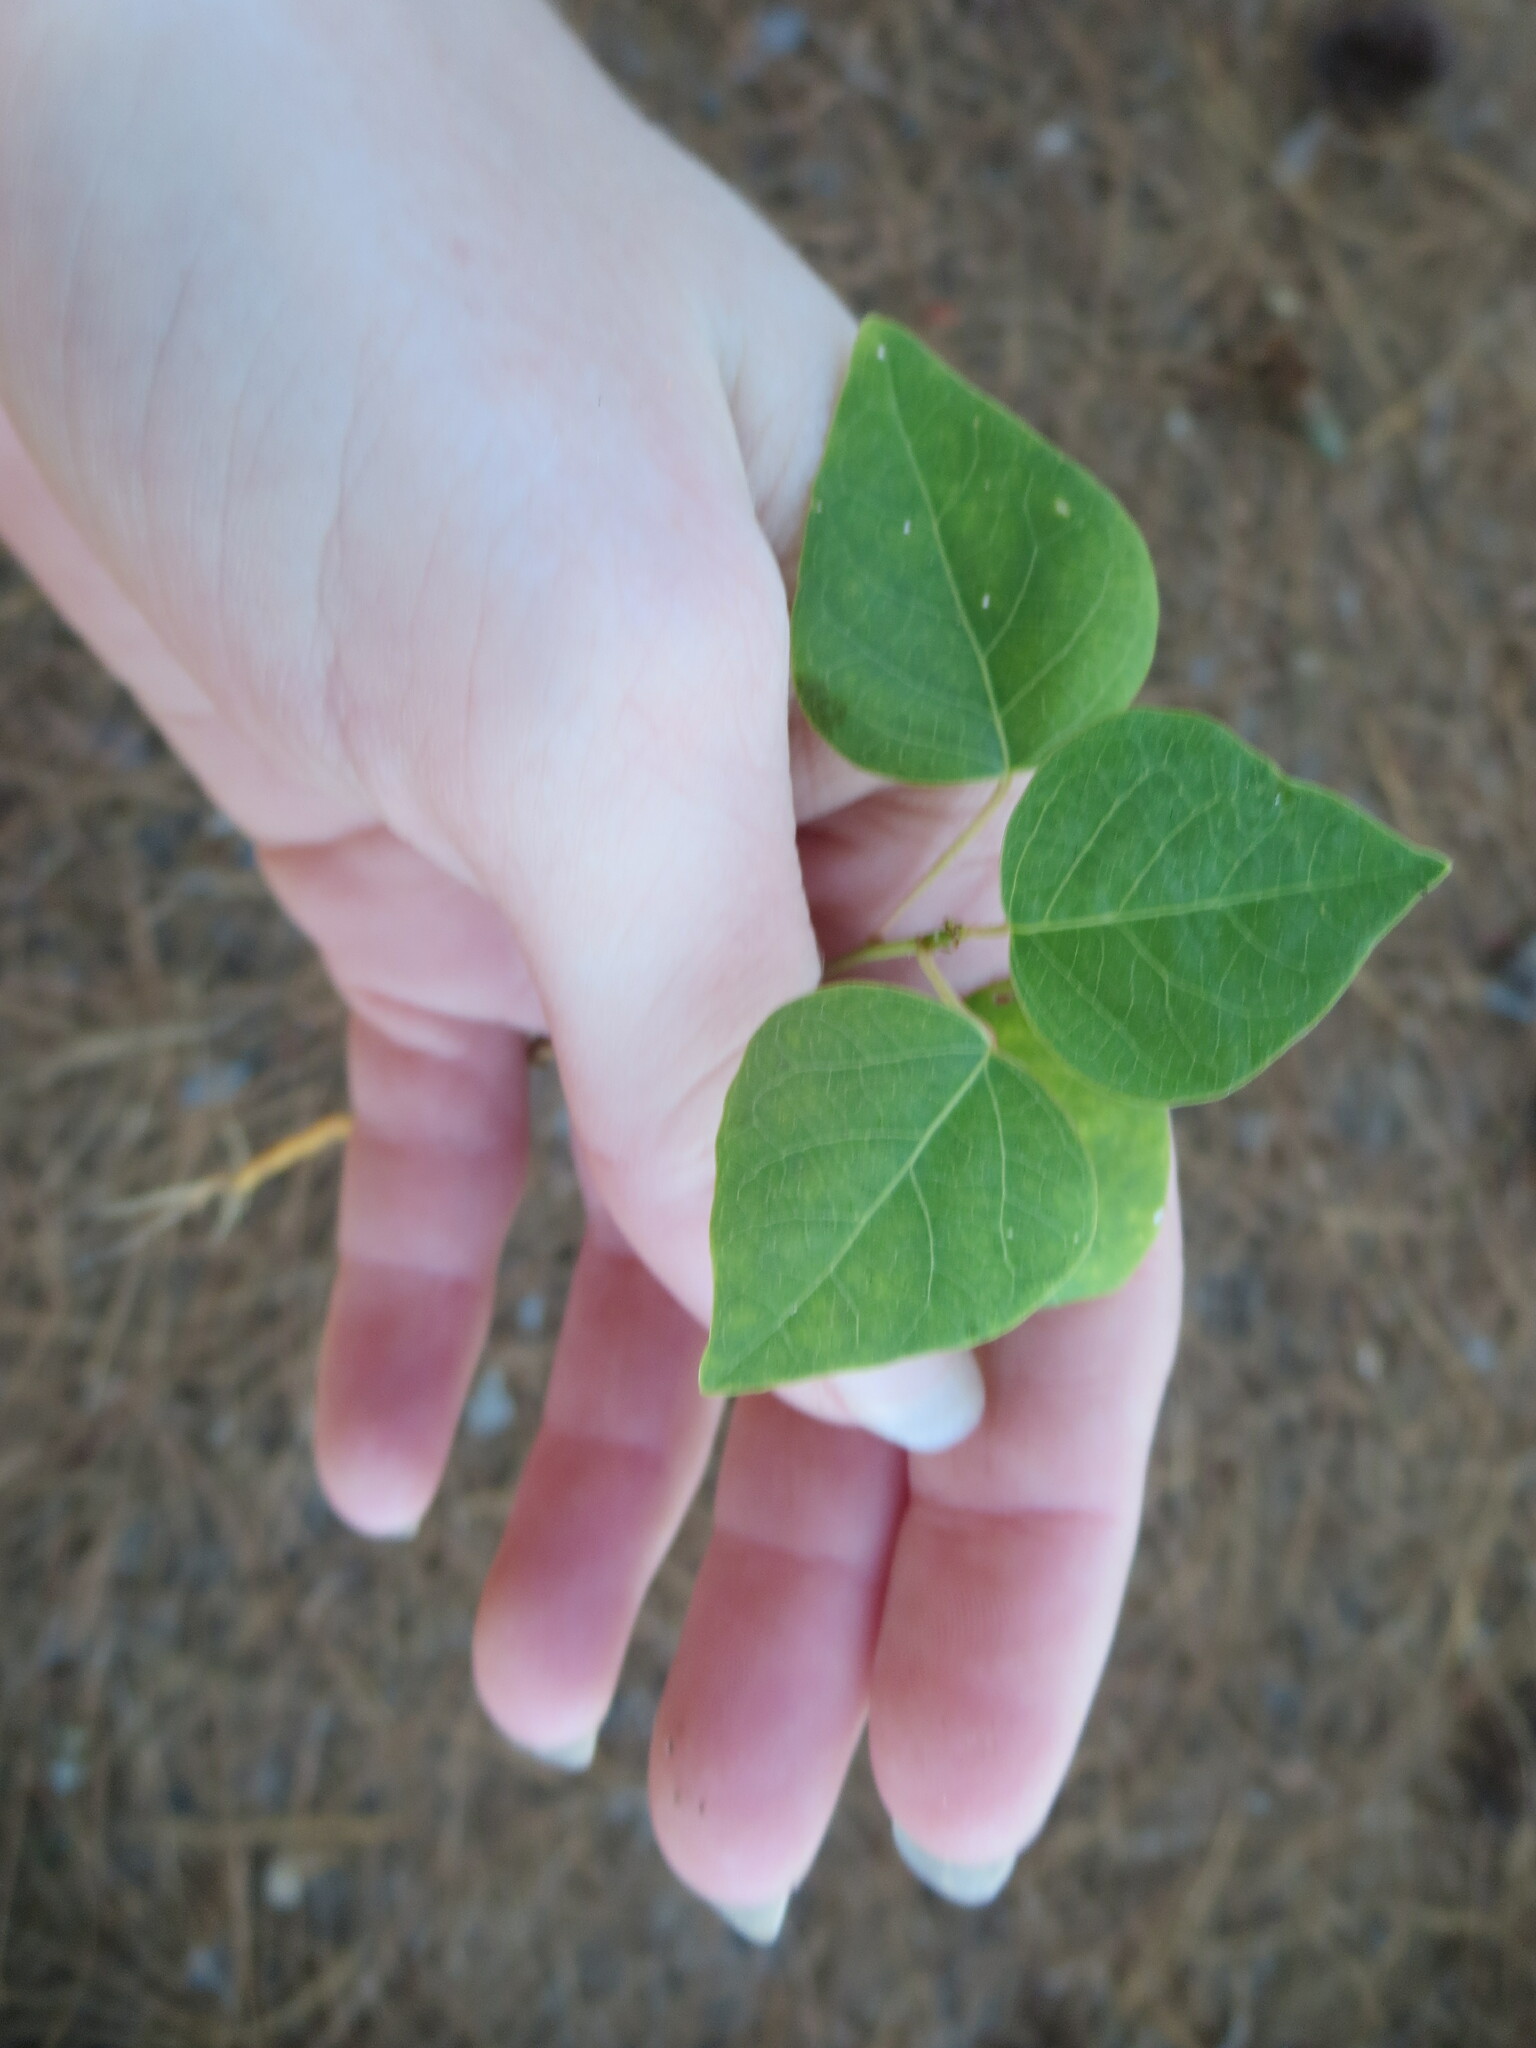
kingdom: Plantae
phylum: Tracheophyta
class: Magnoliopsida
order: Malpighiales
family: Euphorbiaceae
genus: Triadica
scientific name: Triadica sebifera
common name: Chinese tallow
